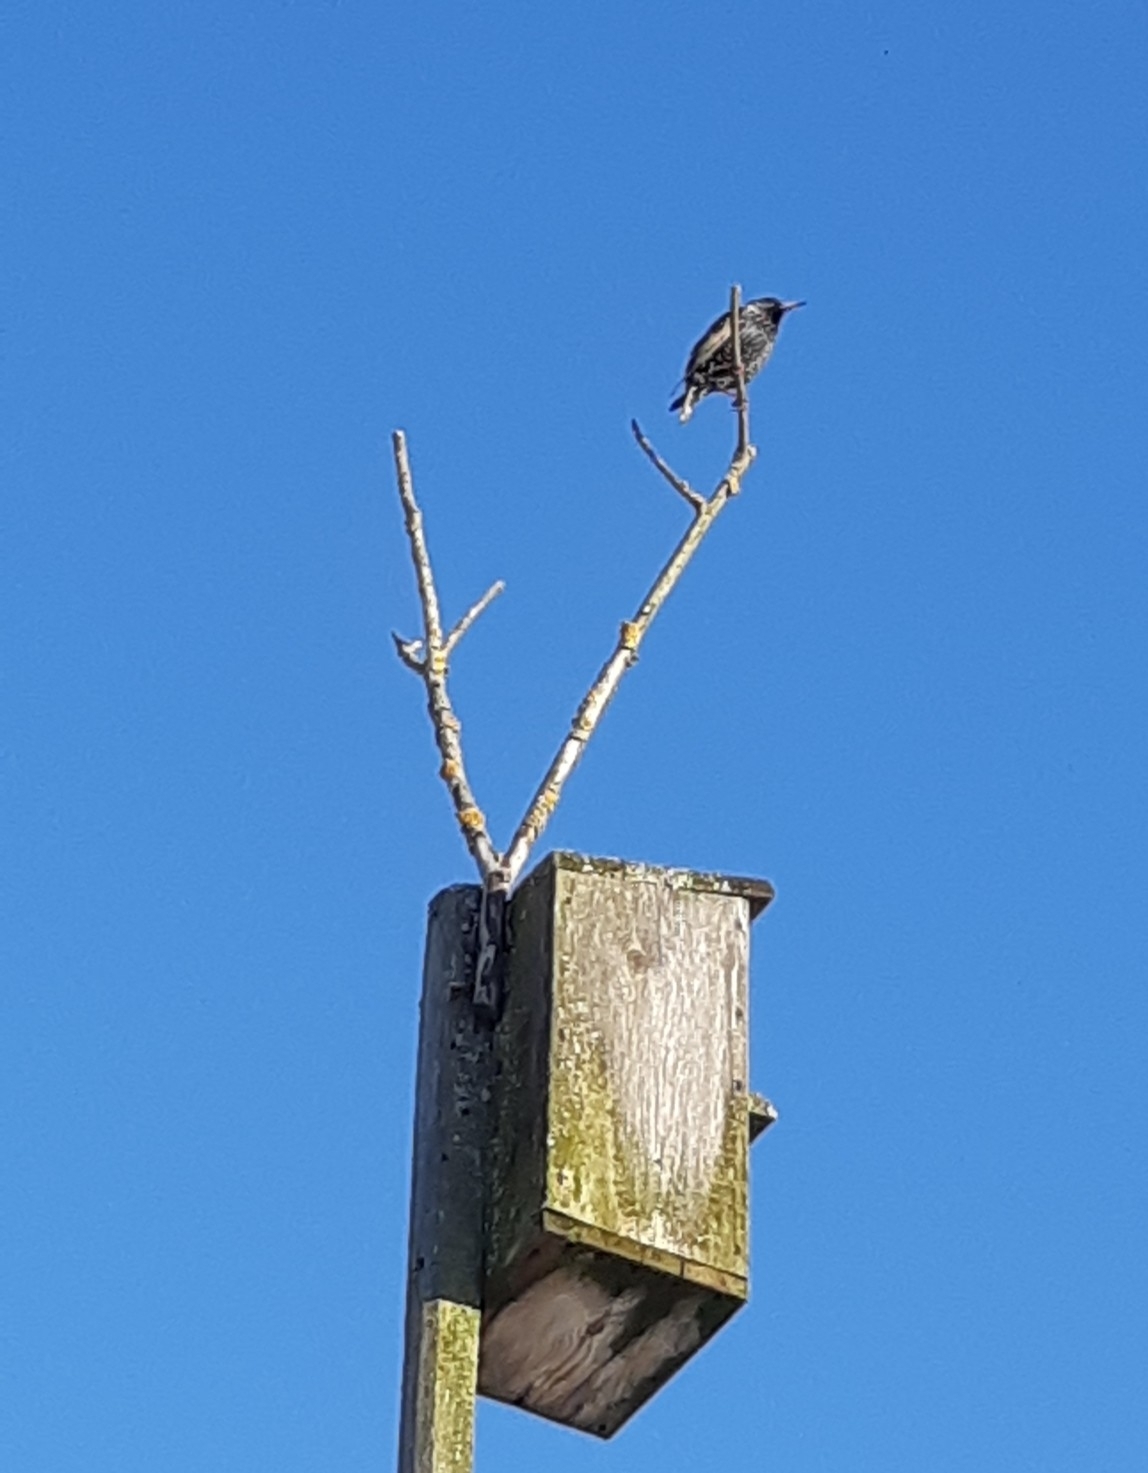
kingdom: Animalia
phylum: Chordata
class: Aves
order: Passeriformes
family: Sturnidae
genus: Sturnus
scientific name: Sturnus vulgaris
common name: Common starling
